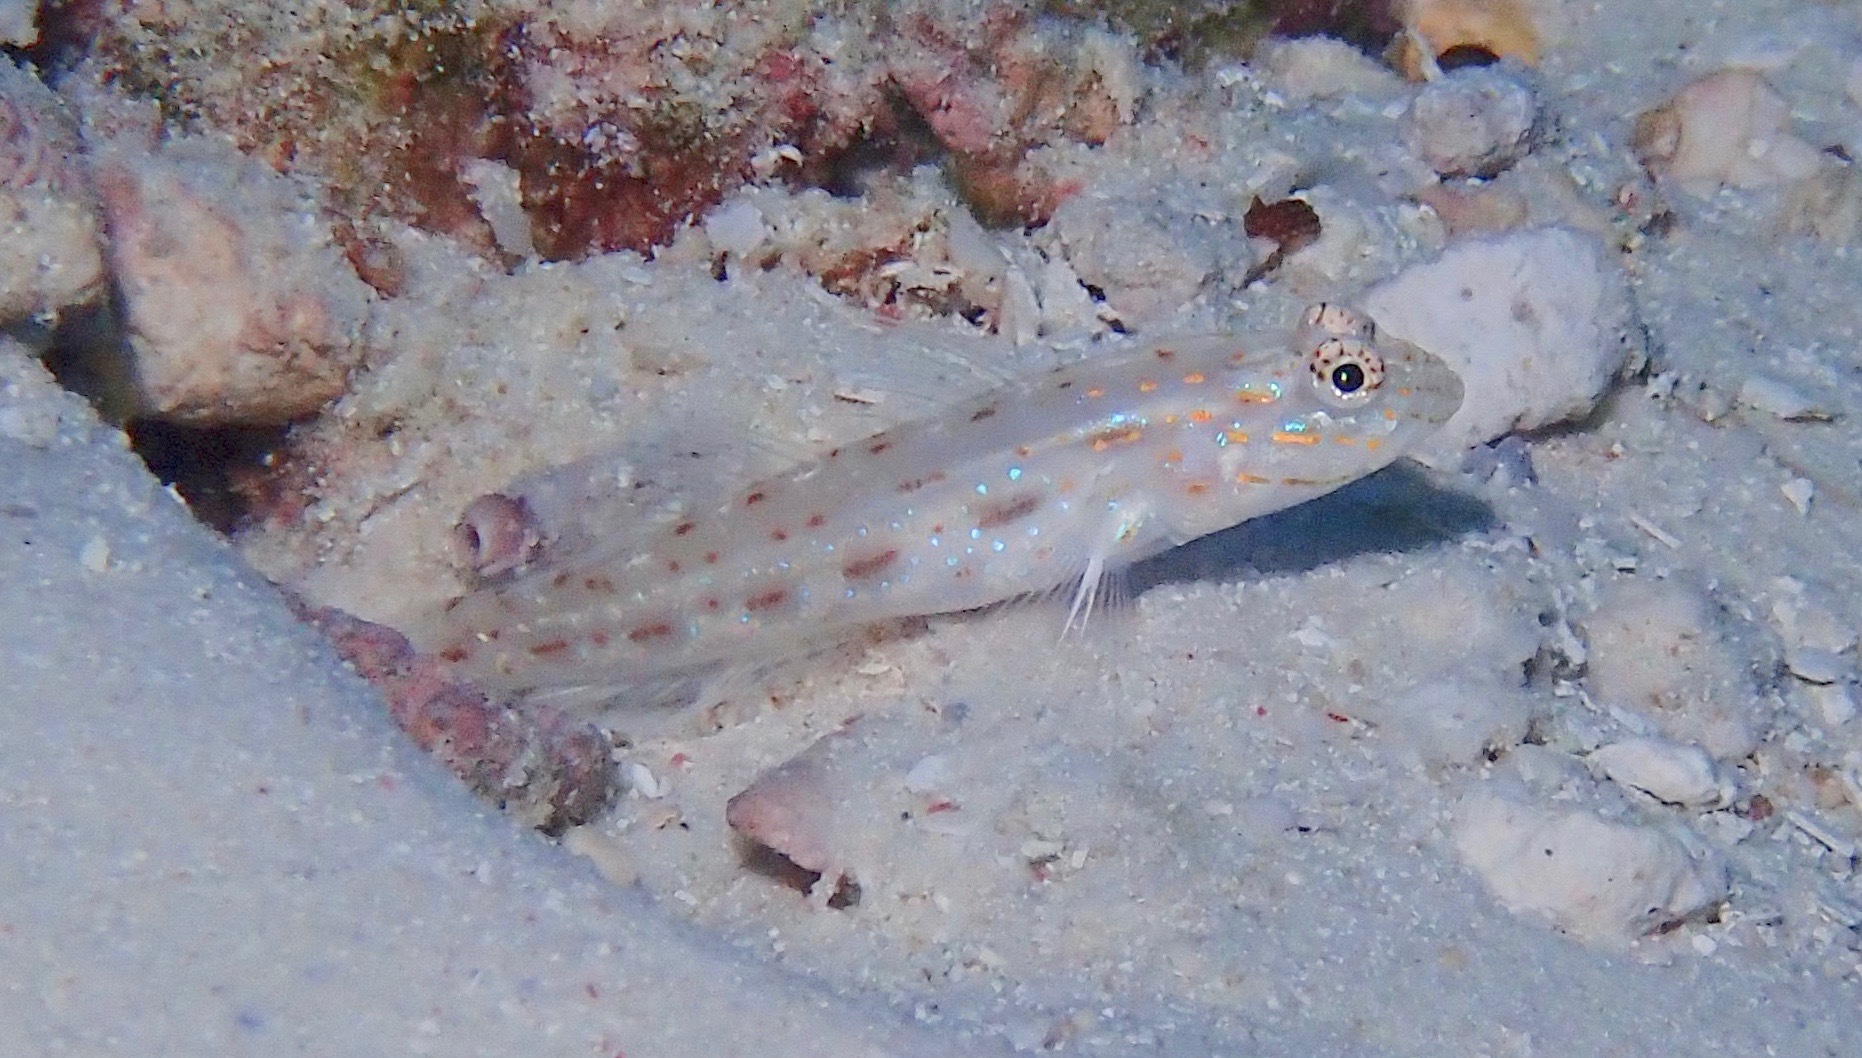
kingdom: Animalia
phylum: Chordata
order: Perciformes
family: Gobiidae
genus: Ctenogobiops
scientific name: Ctenogobiops crocineus
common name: Silverspot shrimpgoby
